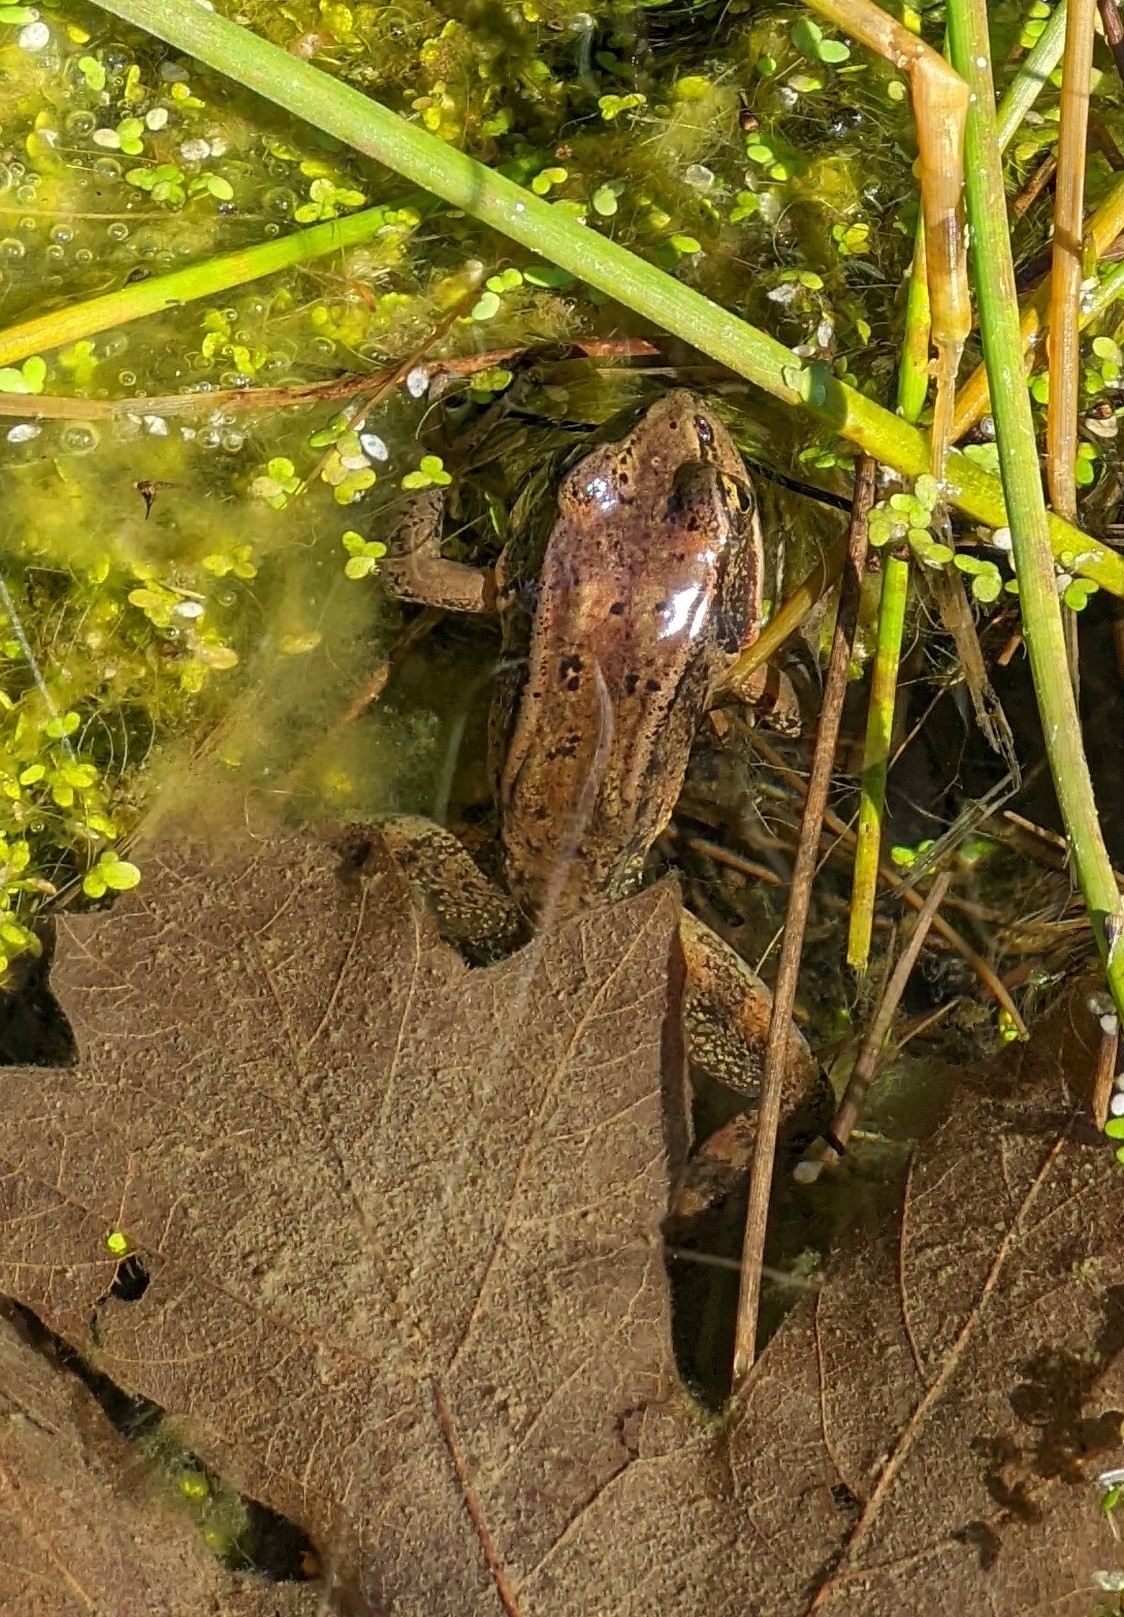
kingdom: Animalia
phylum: Chordata
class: Amphibia
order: Anura
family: Ranidae
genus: Rana
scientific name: Rana aurora
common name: Red-legged frog
